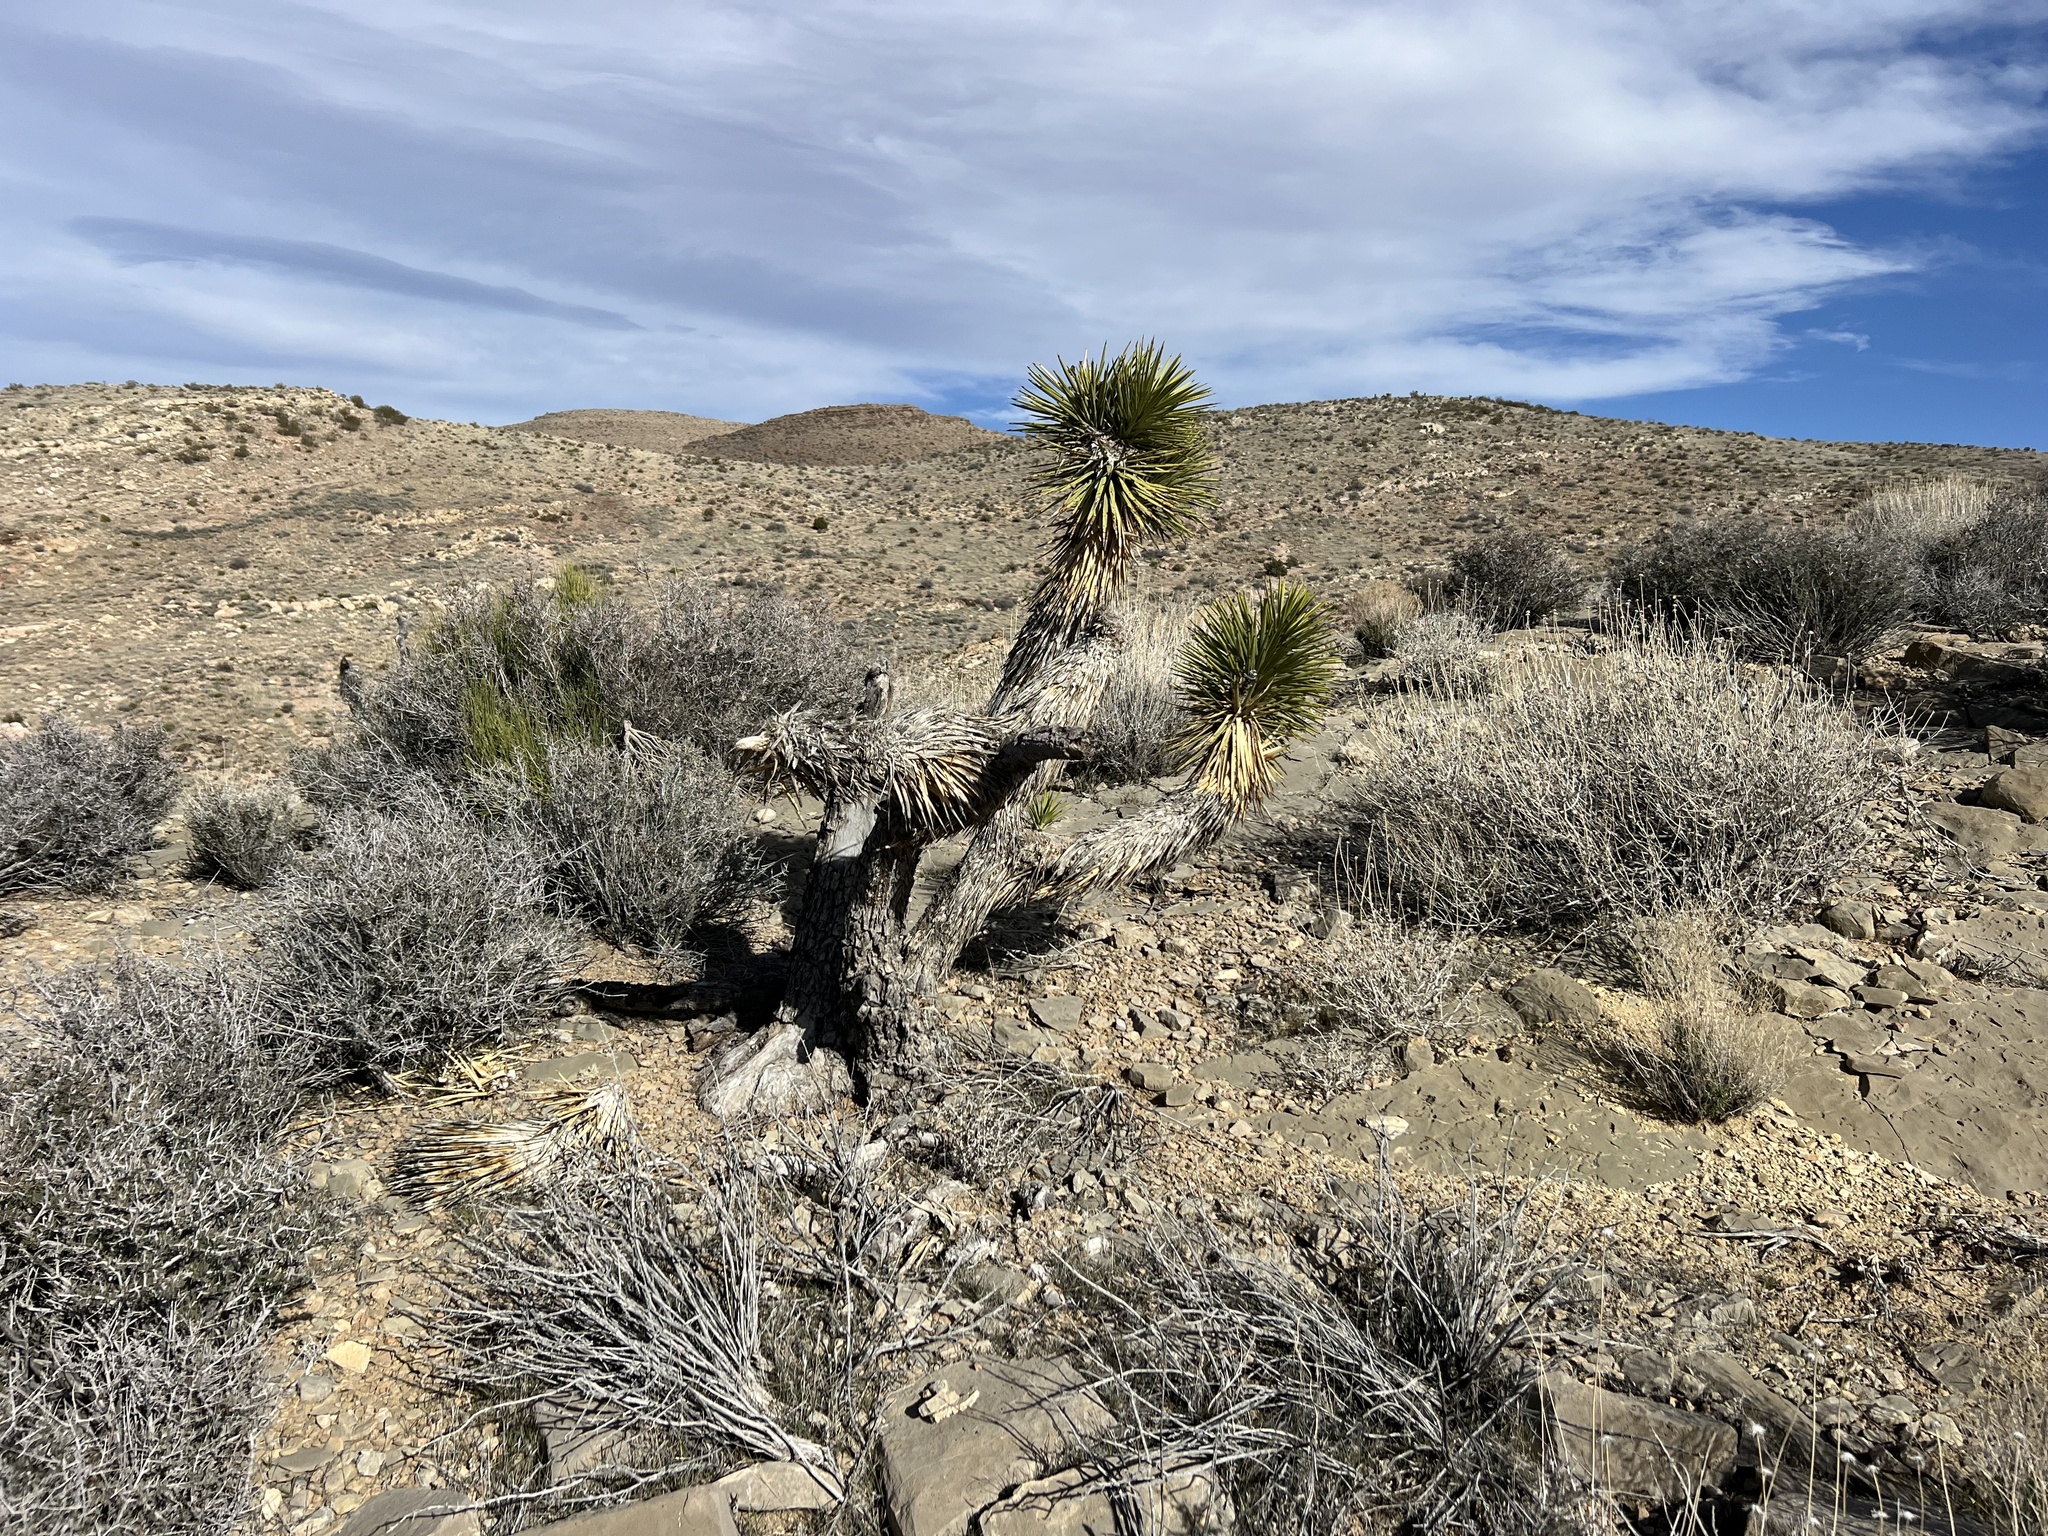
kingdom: Plantae
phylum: Tracheophyta
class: Liliopsida
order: Asparagales
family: Asparagaceae
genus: Yucca
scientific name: Yucca brevifolia
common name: Joshua tree
